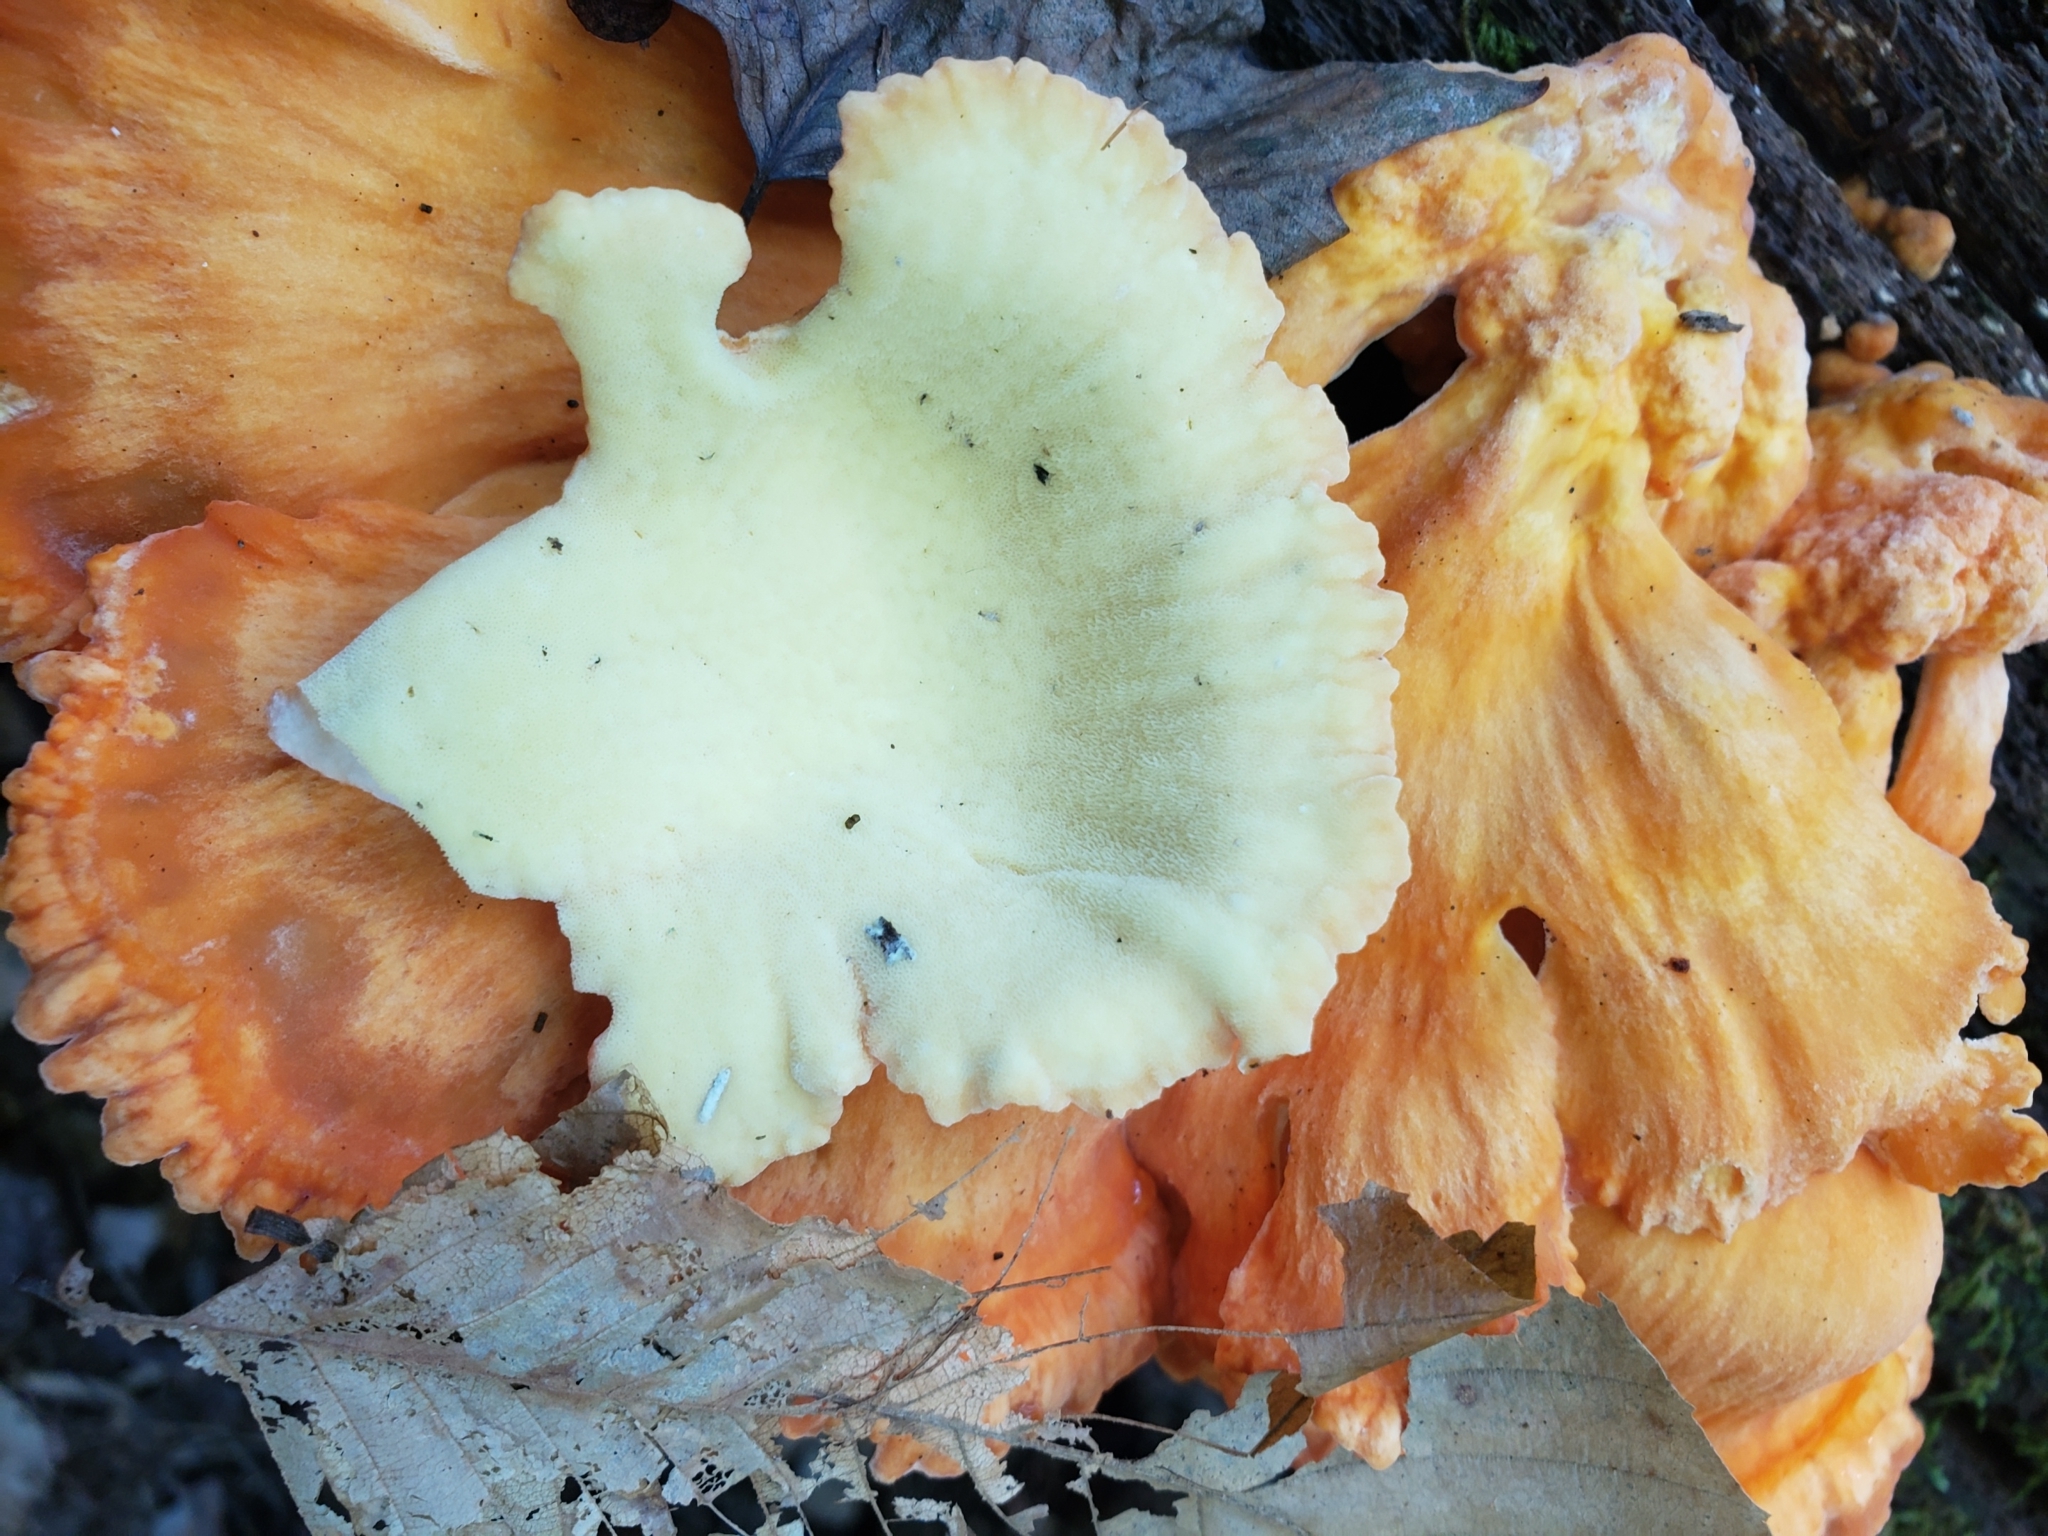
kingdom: Fungi
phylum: Basidiomycota
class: Agaricomycetes
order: Polyporales
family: Laetiporaceae
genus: Laetiporus
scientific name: Laetiporus sulphureus
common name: Chicken of the woods
